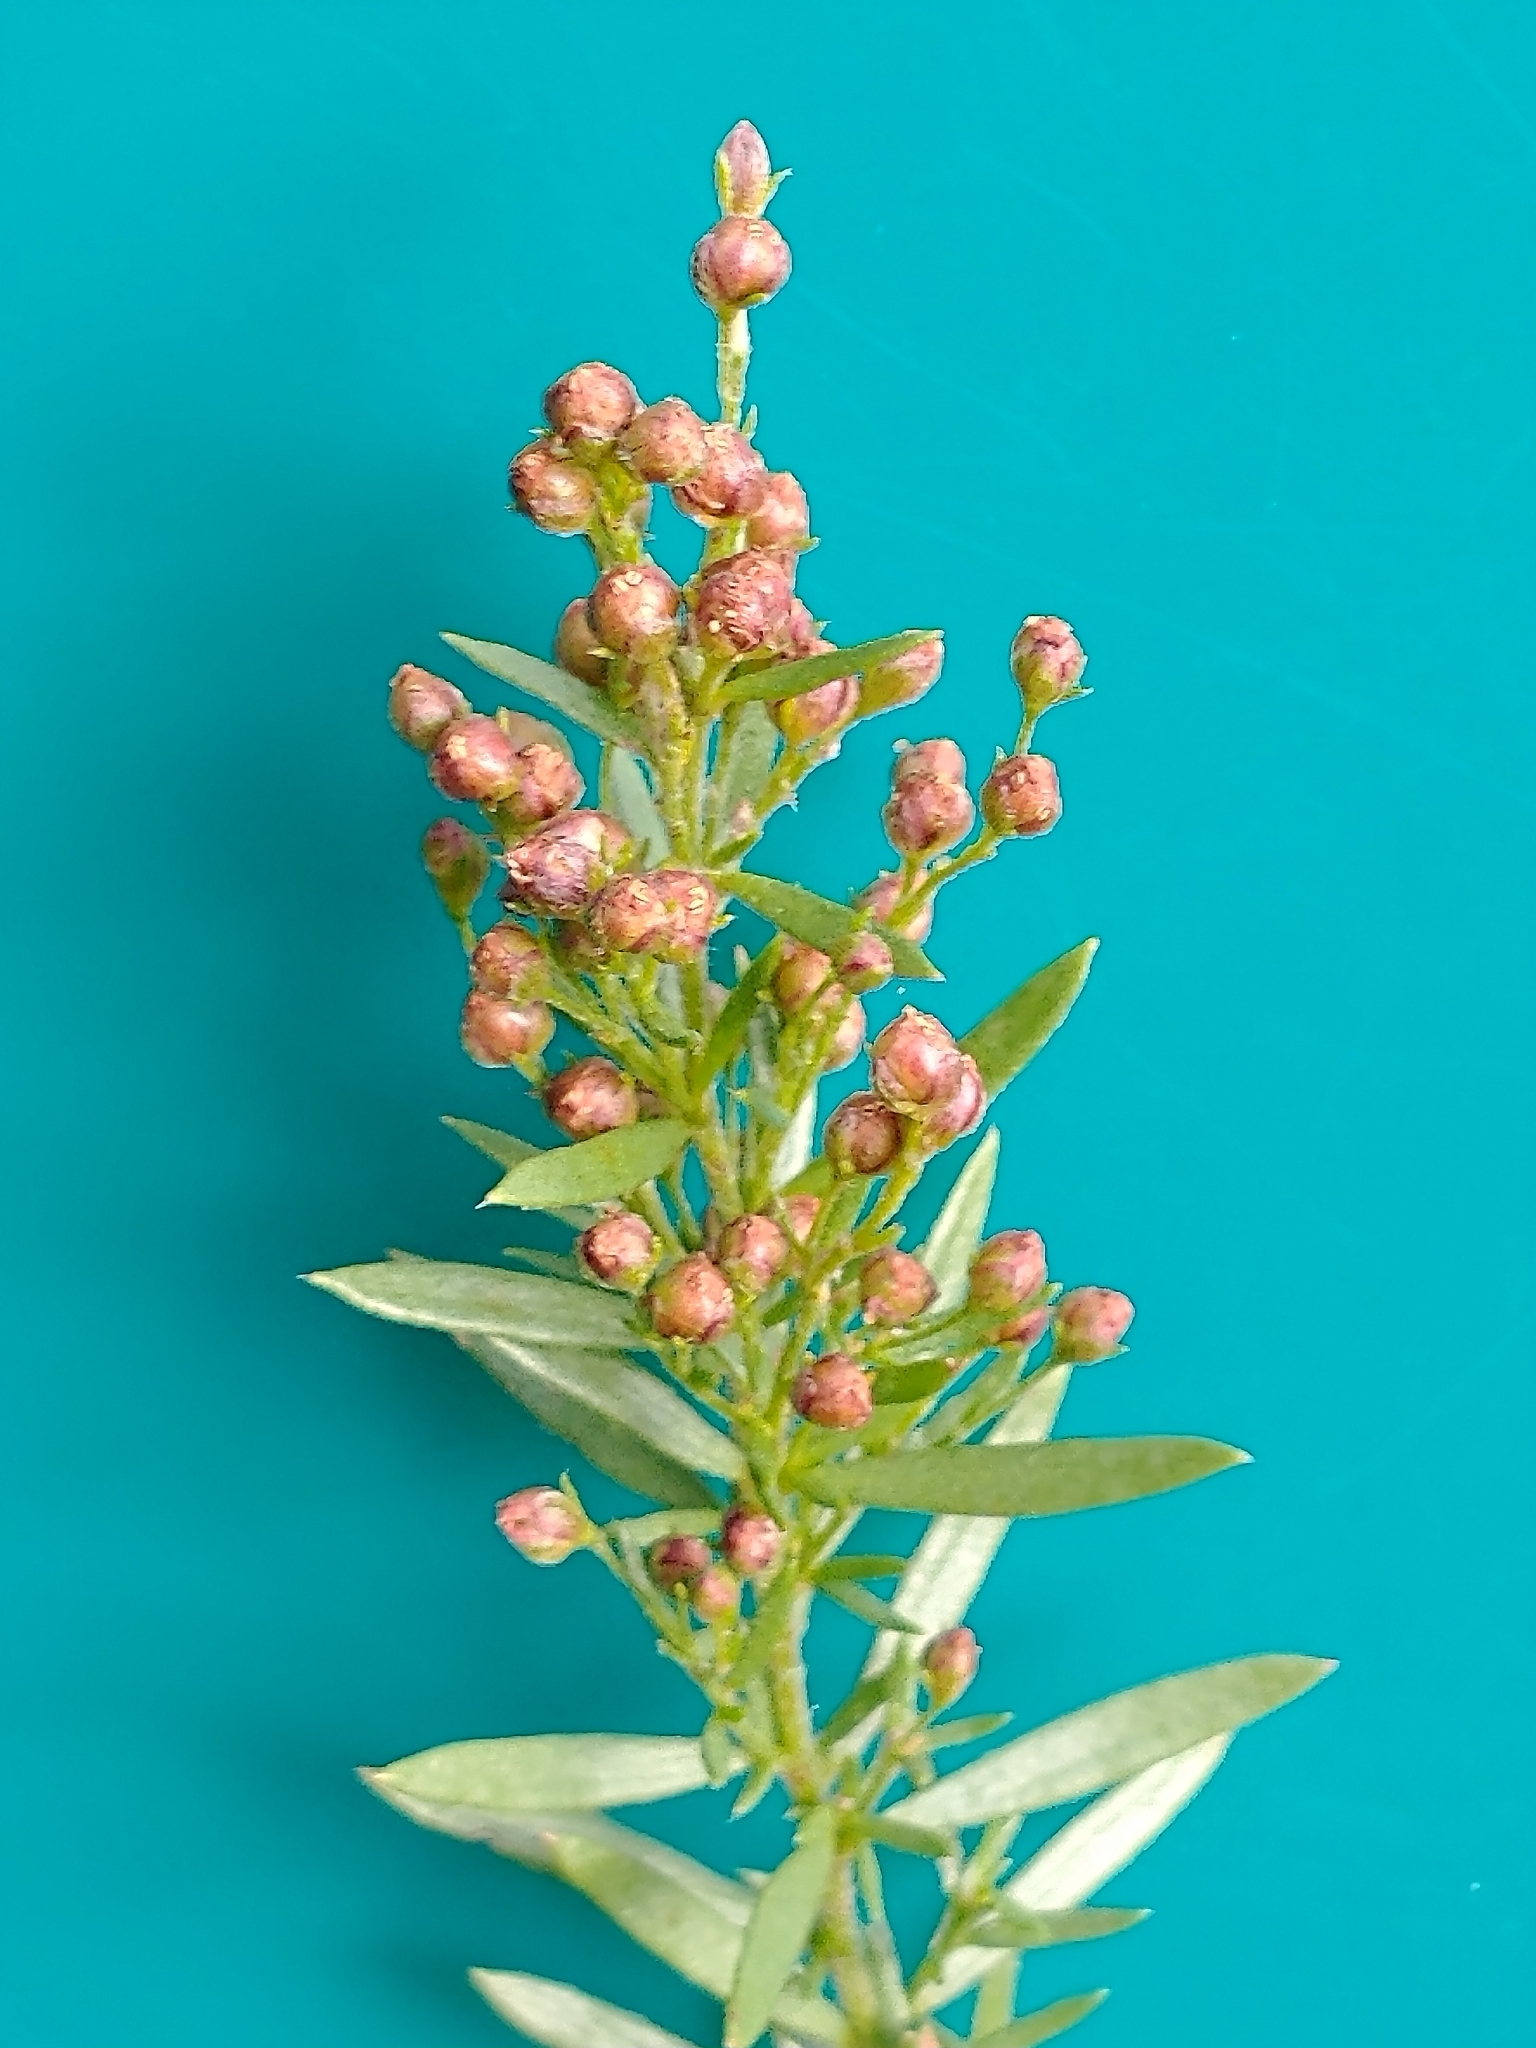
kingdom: Plantae
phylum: Tracheophyta
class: Magnoliopsida
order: Malvales
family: Cistaceae
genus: Lechea
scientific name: Lechea intermedia
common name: Intermediate pinweed
